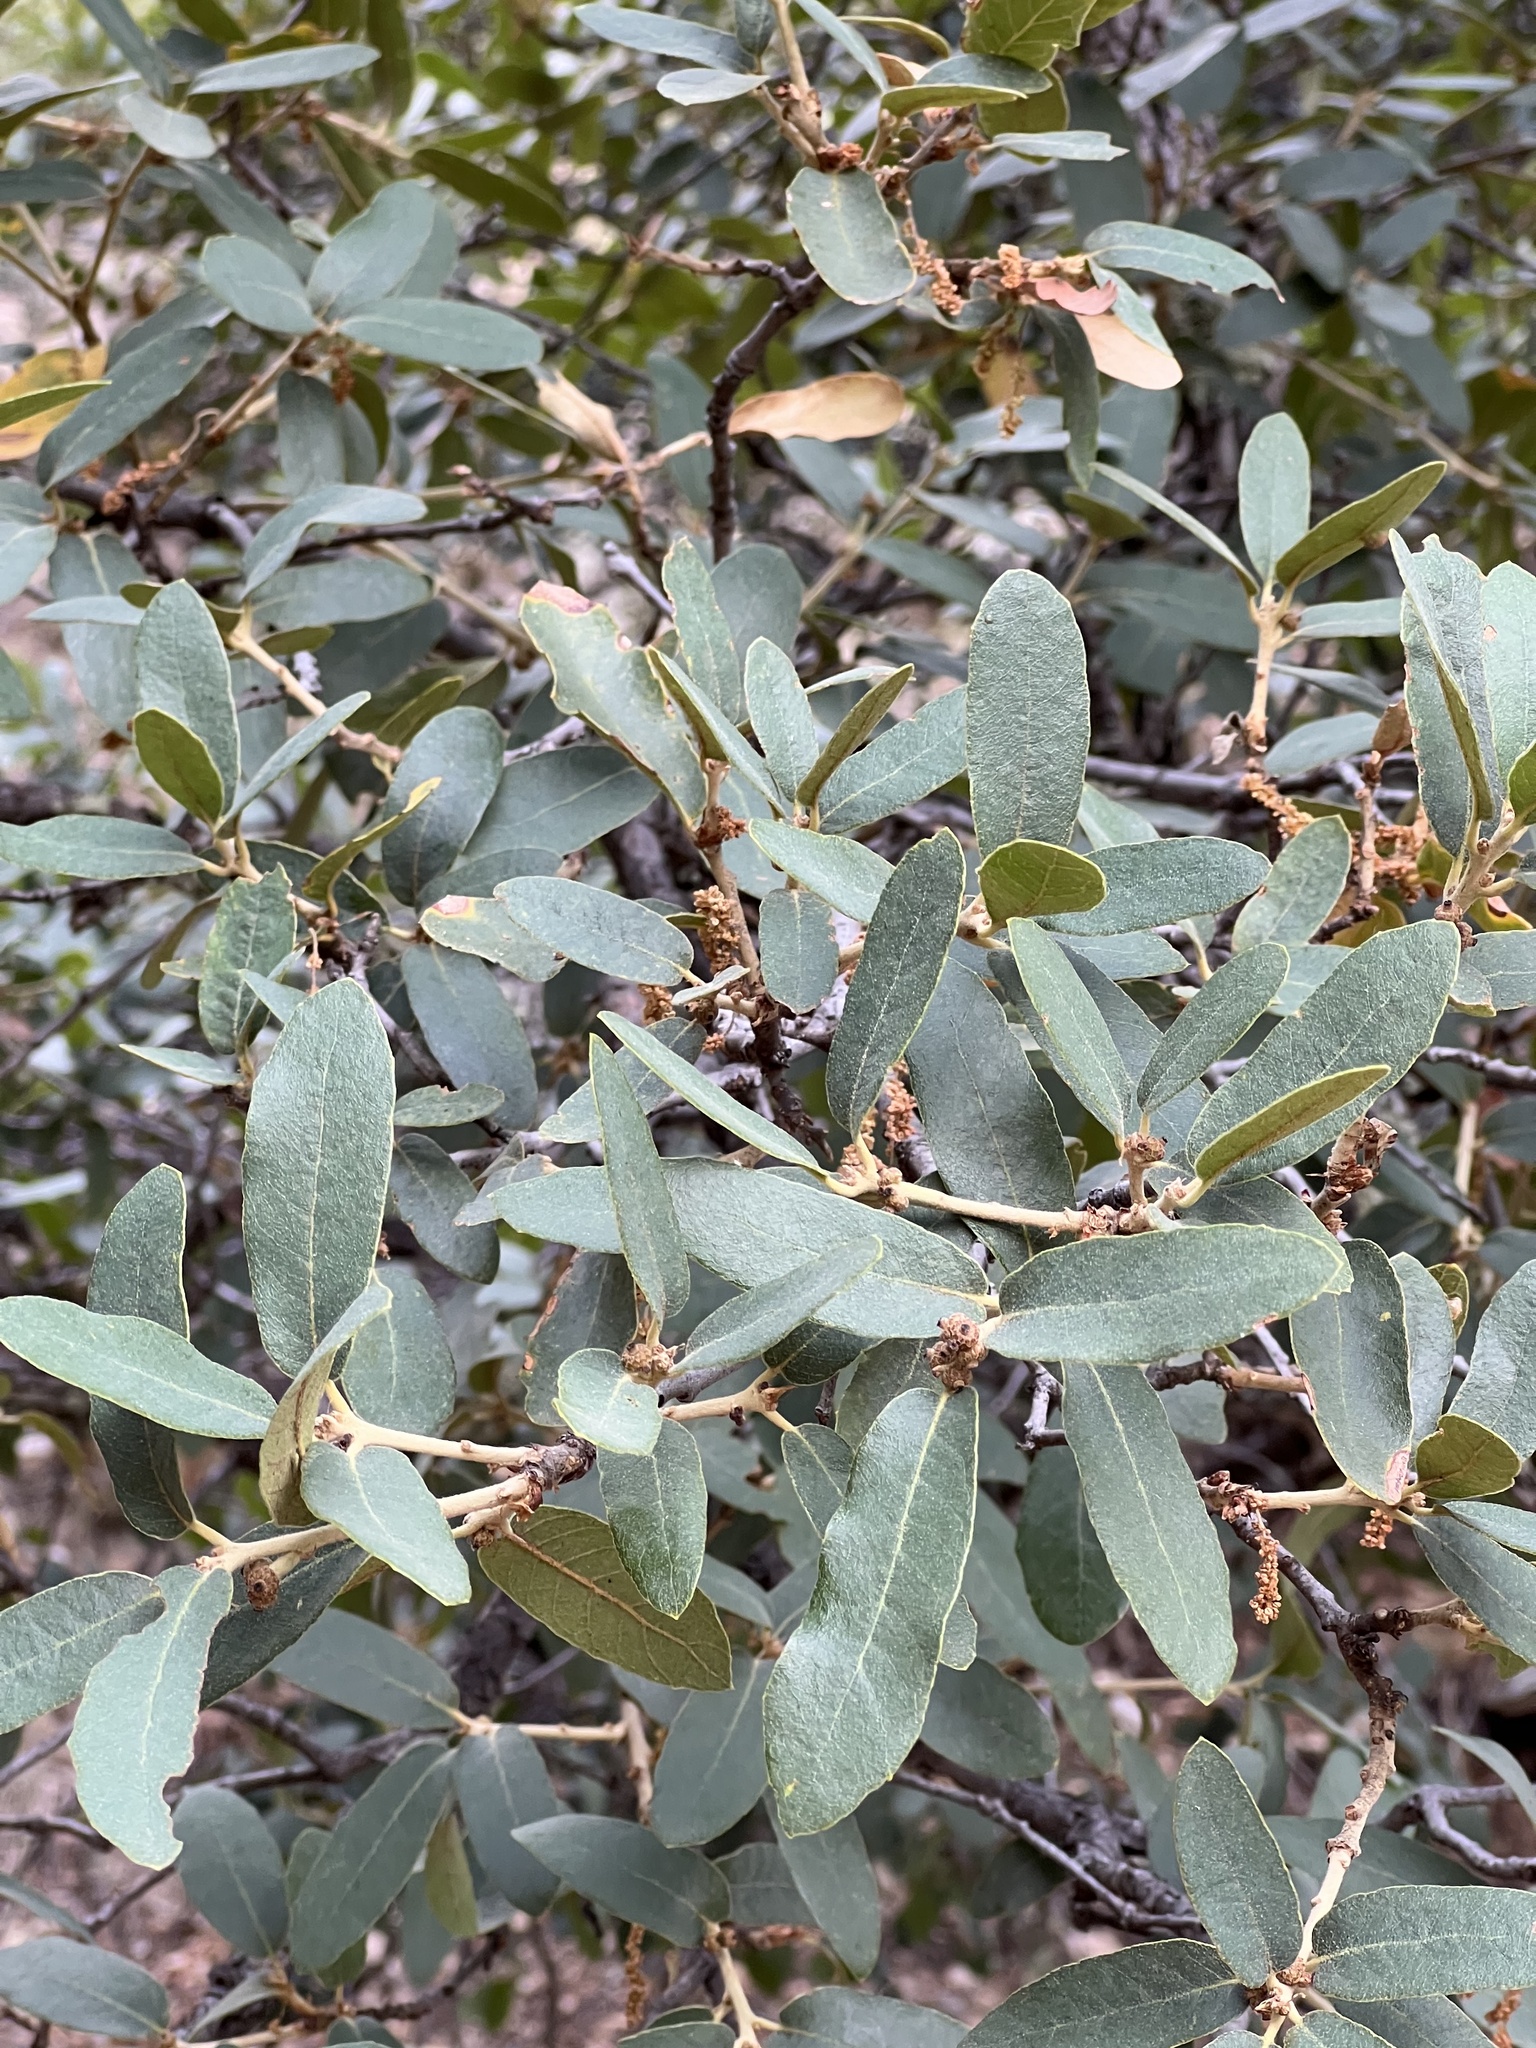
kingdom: Plantae
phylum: Tracheophyta
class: Magnoliopsida
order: Fagales
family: Fagaceae
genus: Quercus
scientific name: Quercus arizonica
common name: Arizona white oak
